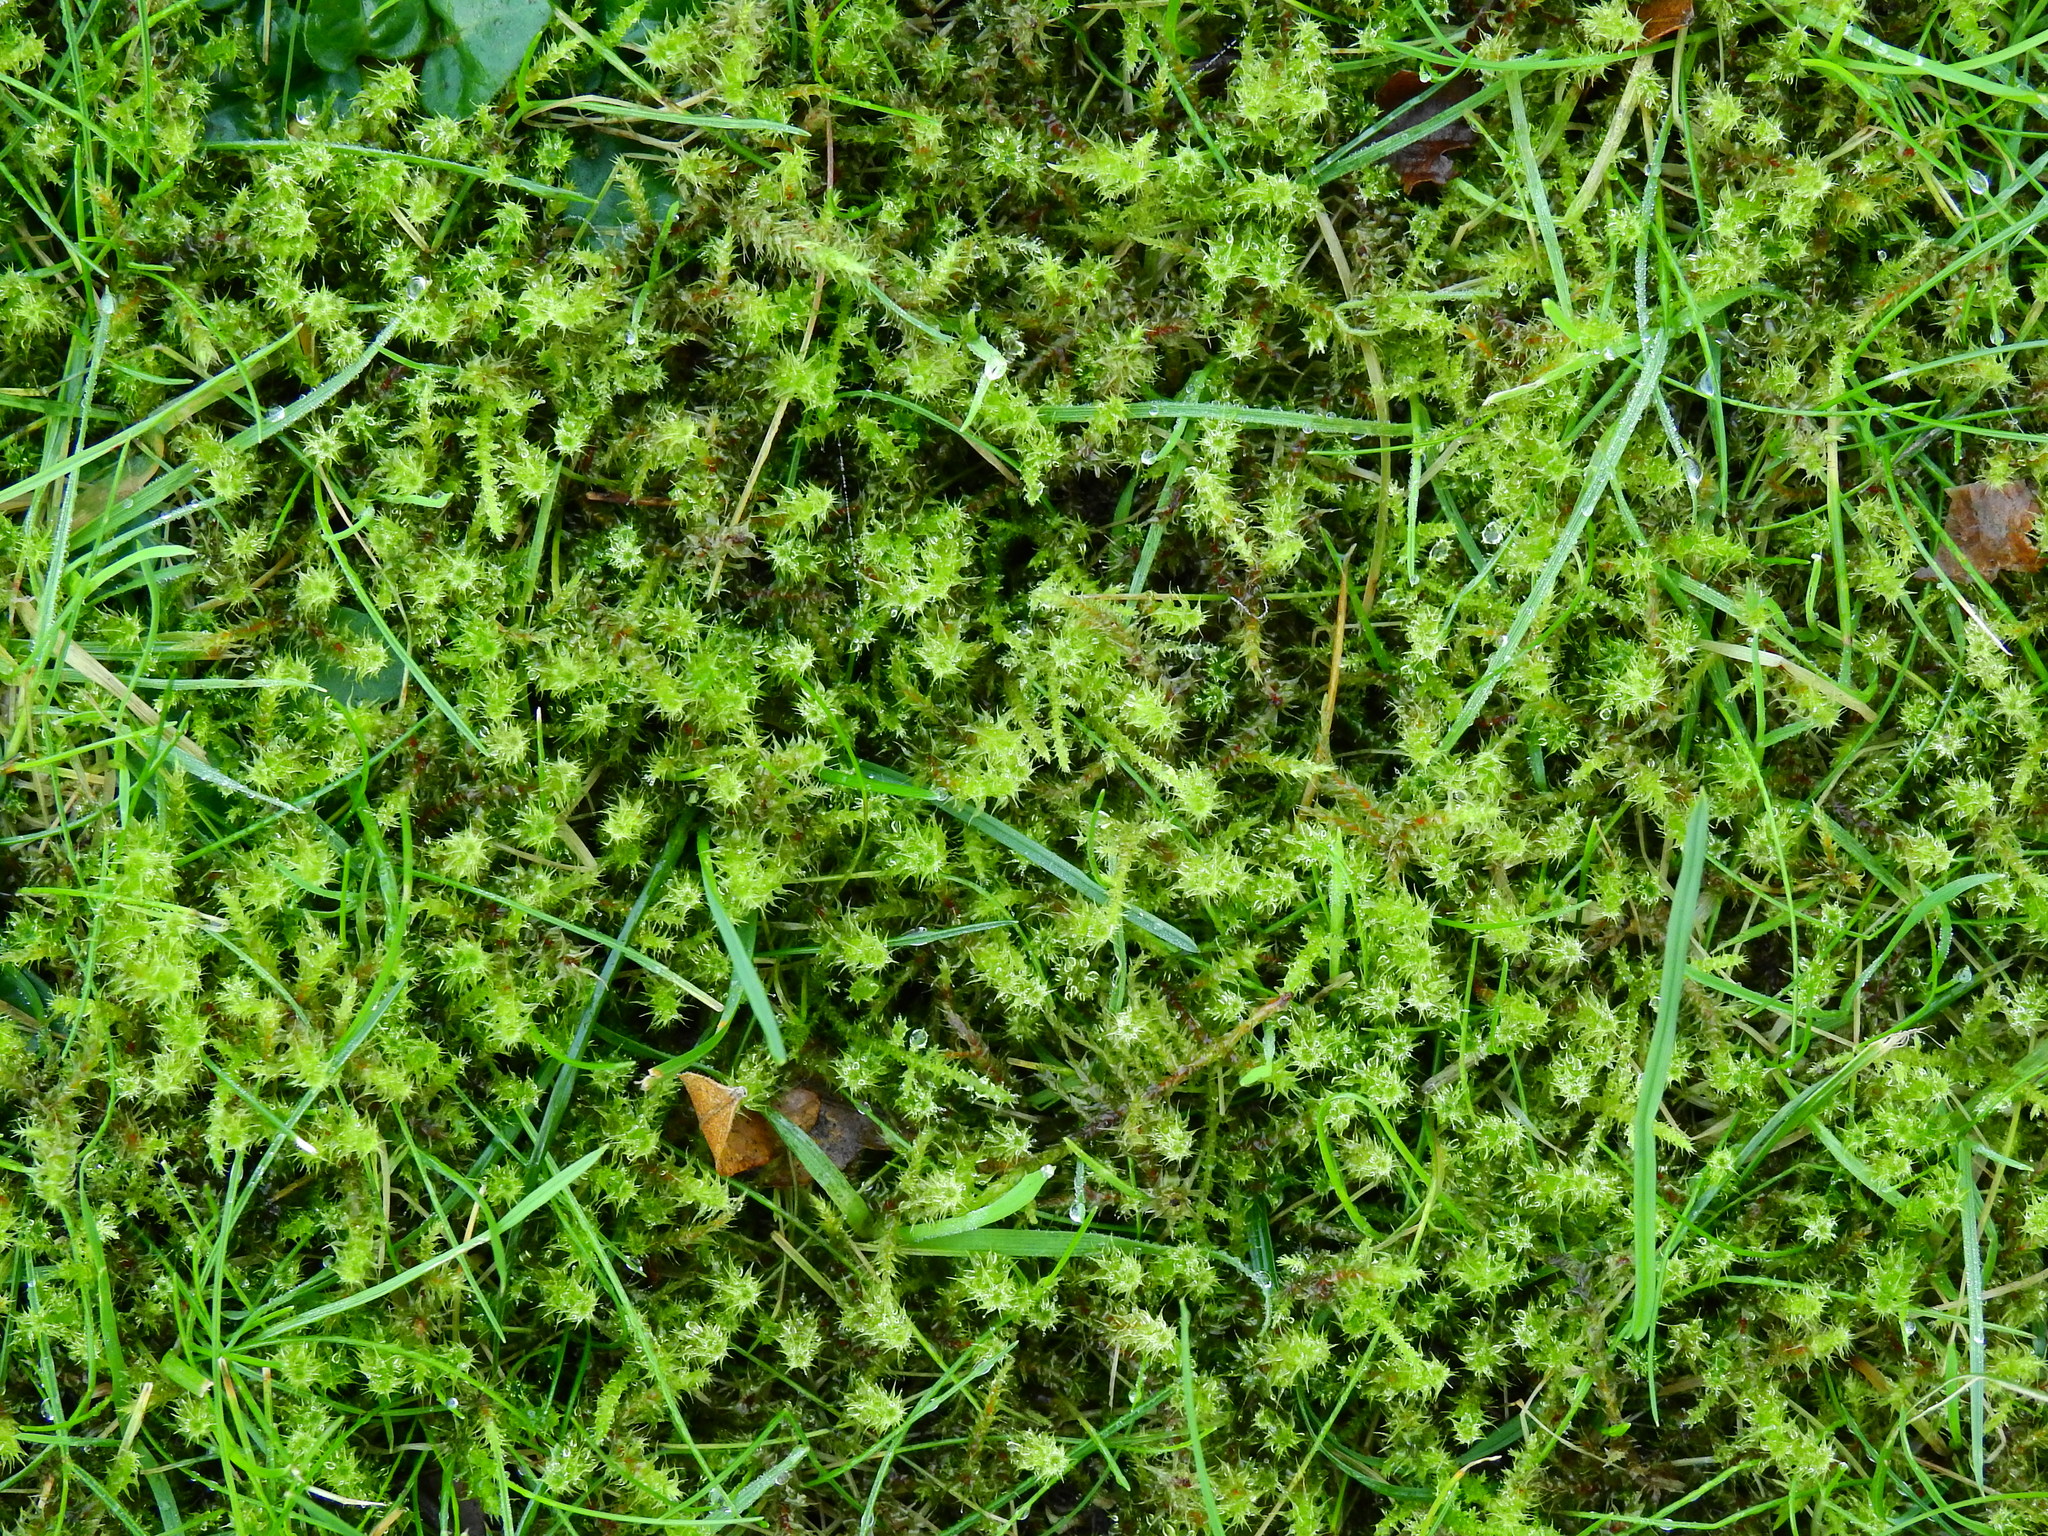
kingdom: Plantae
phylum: Bryophyta
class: Bryopsida
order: Hypnales
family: Hylocomiaceae
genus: Rhytidiadelphus
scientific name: Rhytidiadelphus squarrosus
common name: Springy turf-moss
